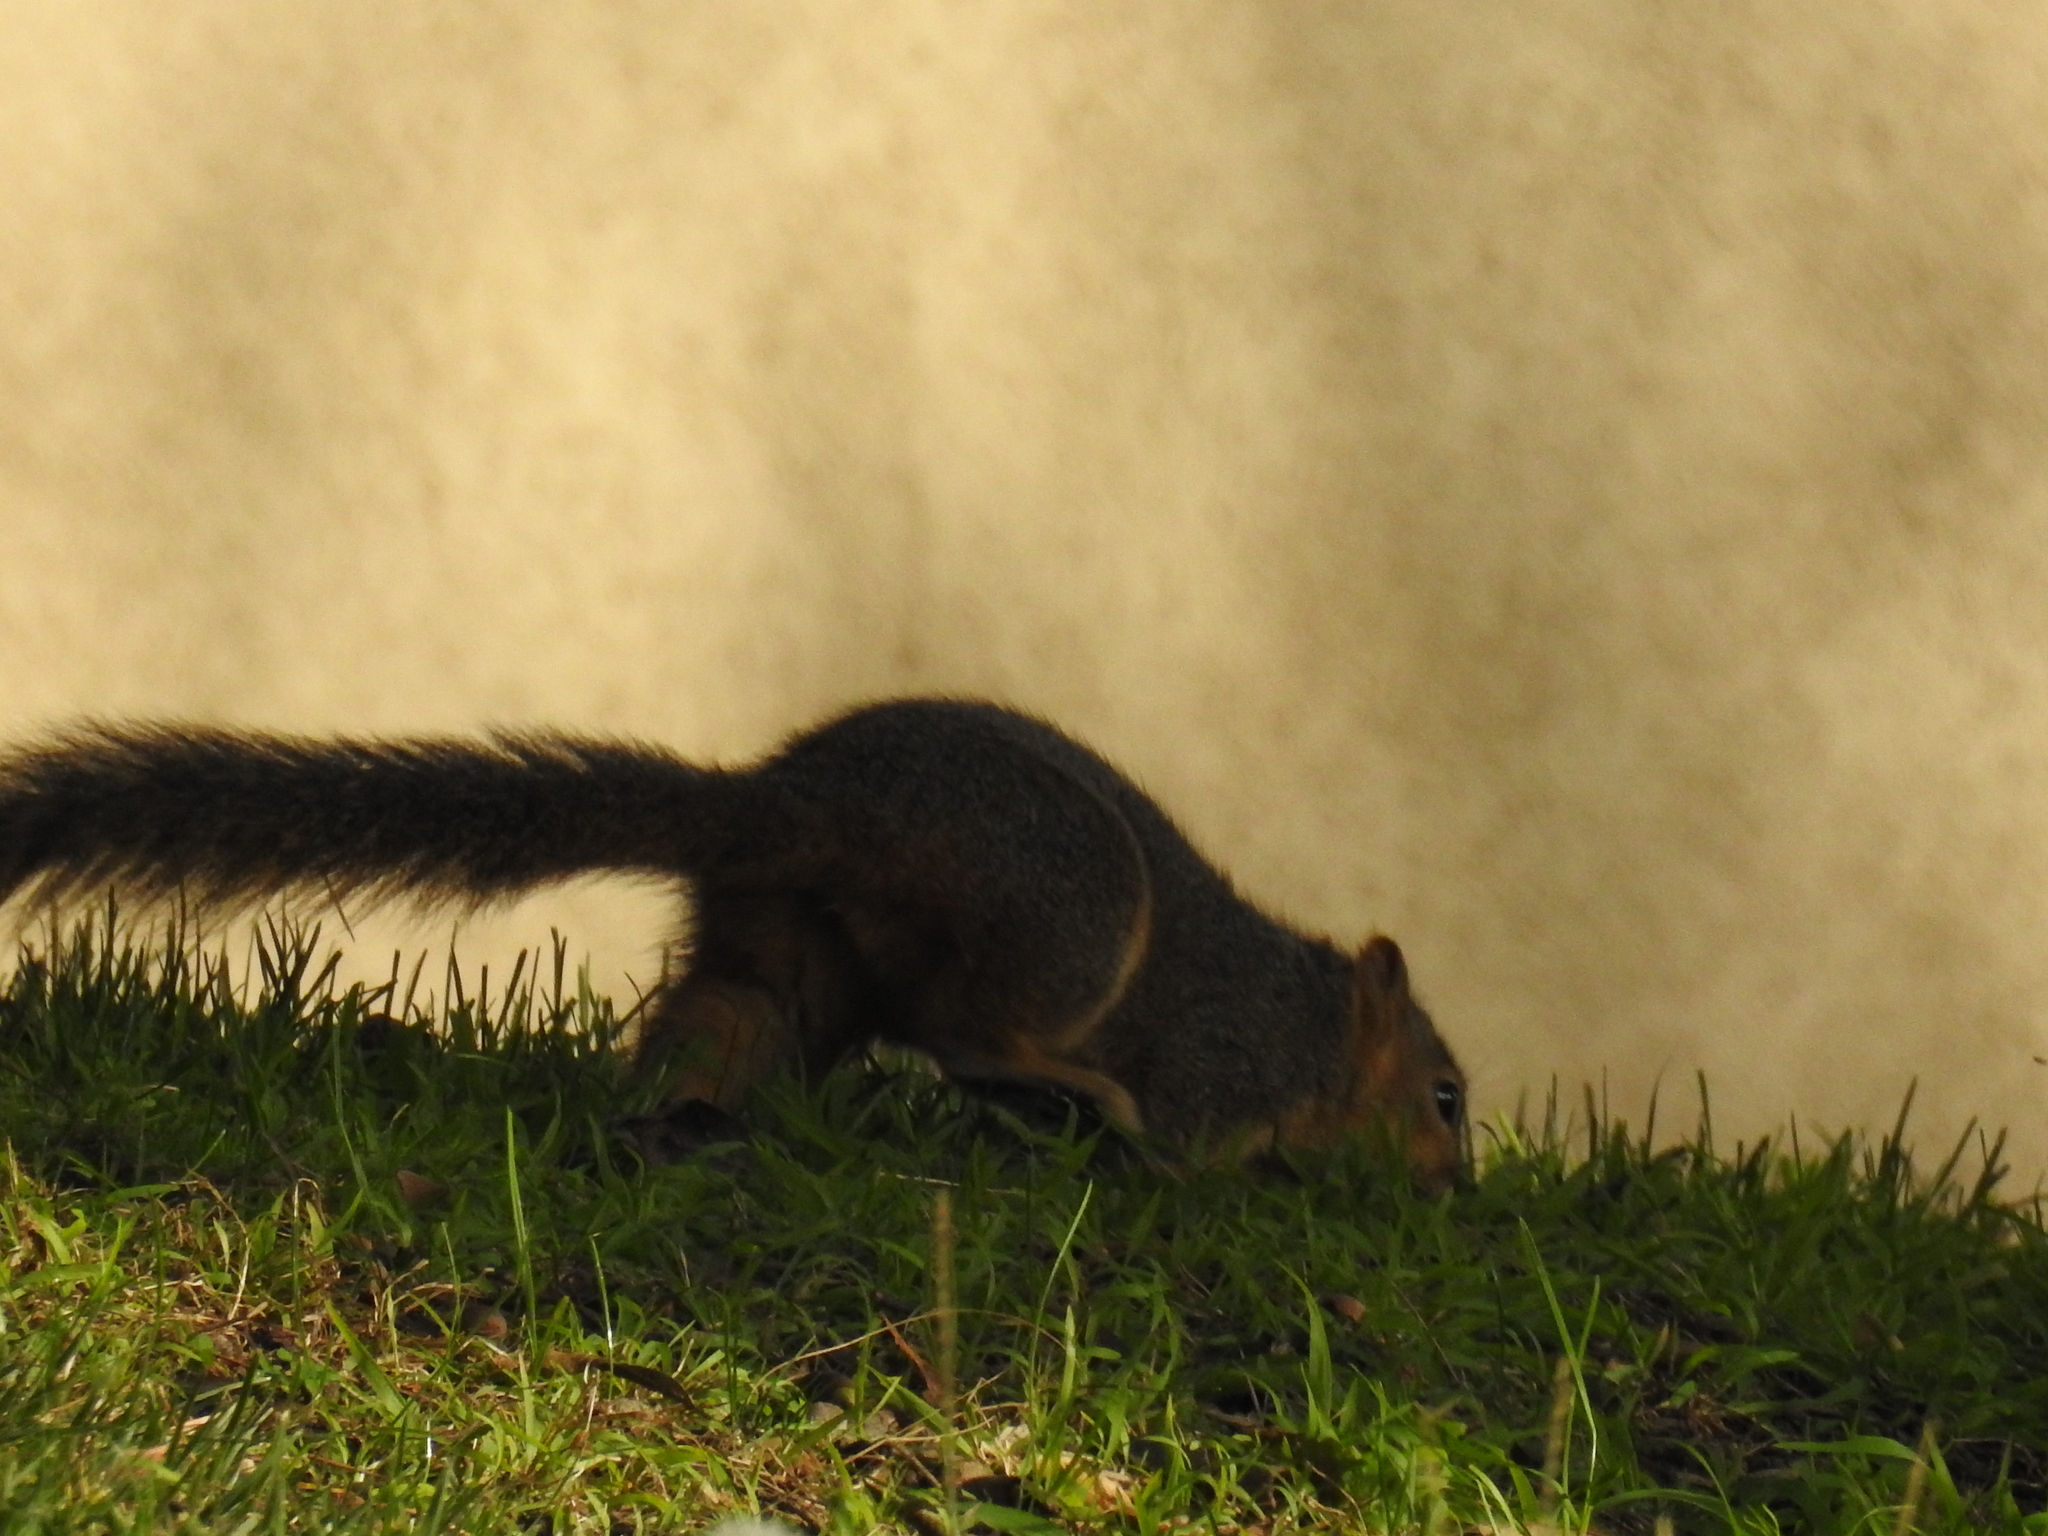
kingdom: Animalia
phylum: Chordata
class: Mammalia
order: Rodentia
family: Sciuridae
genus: Sciurus
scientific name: Sciurus niger
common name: Fox squirrel
